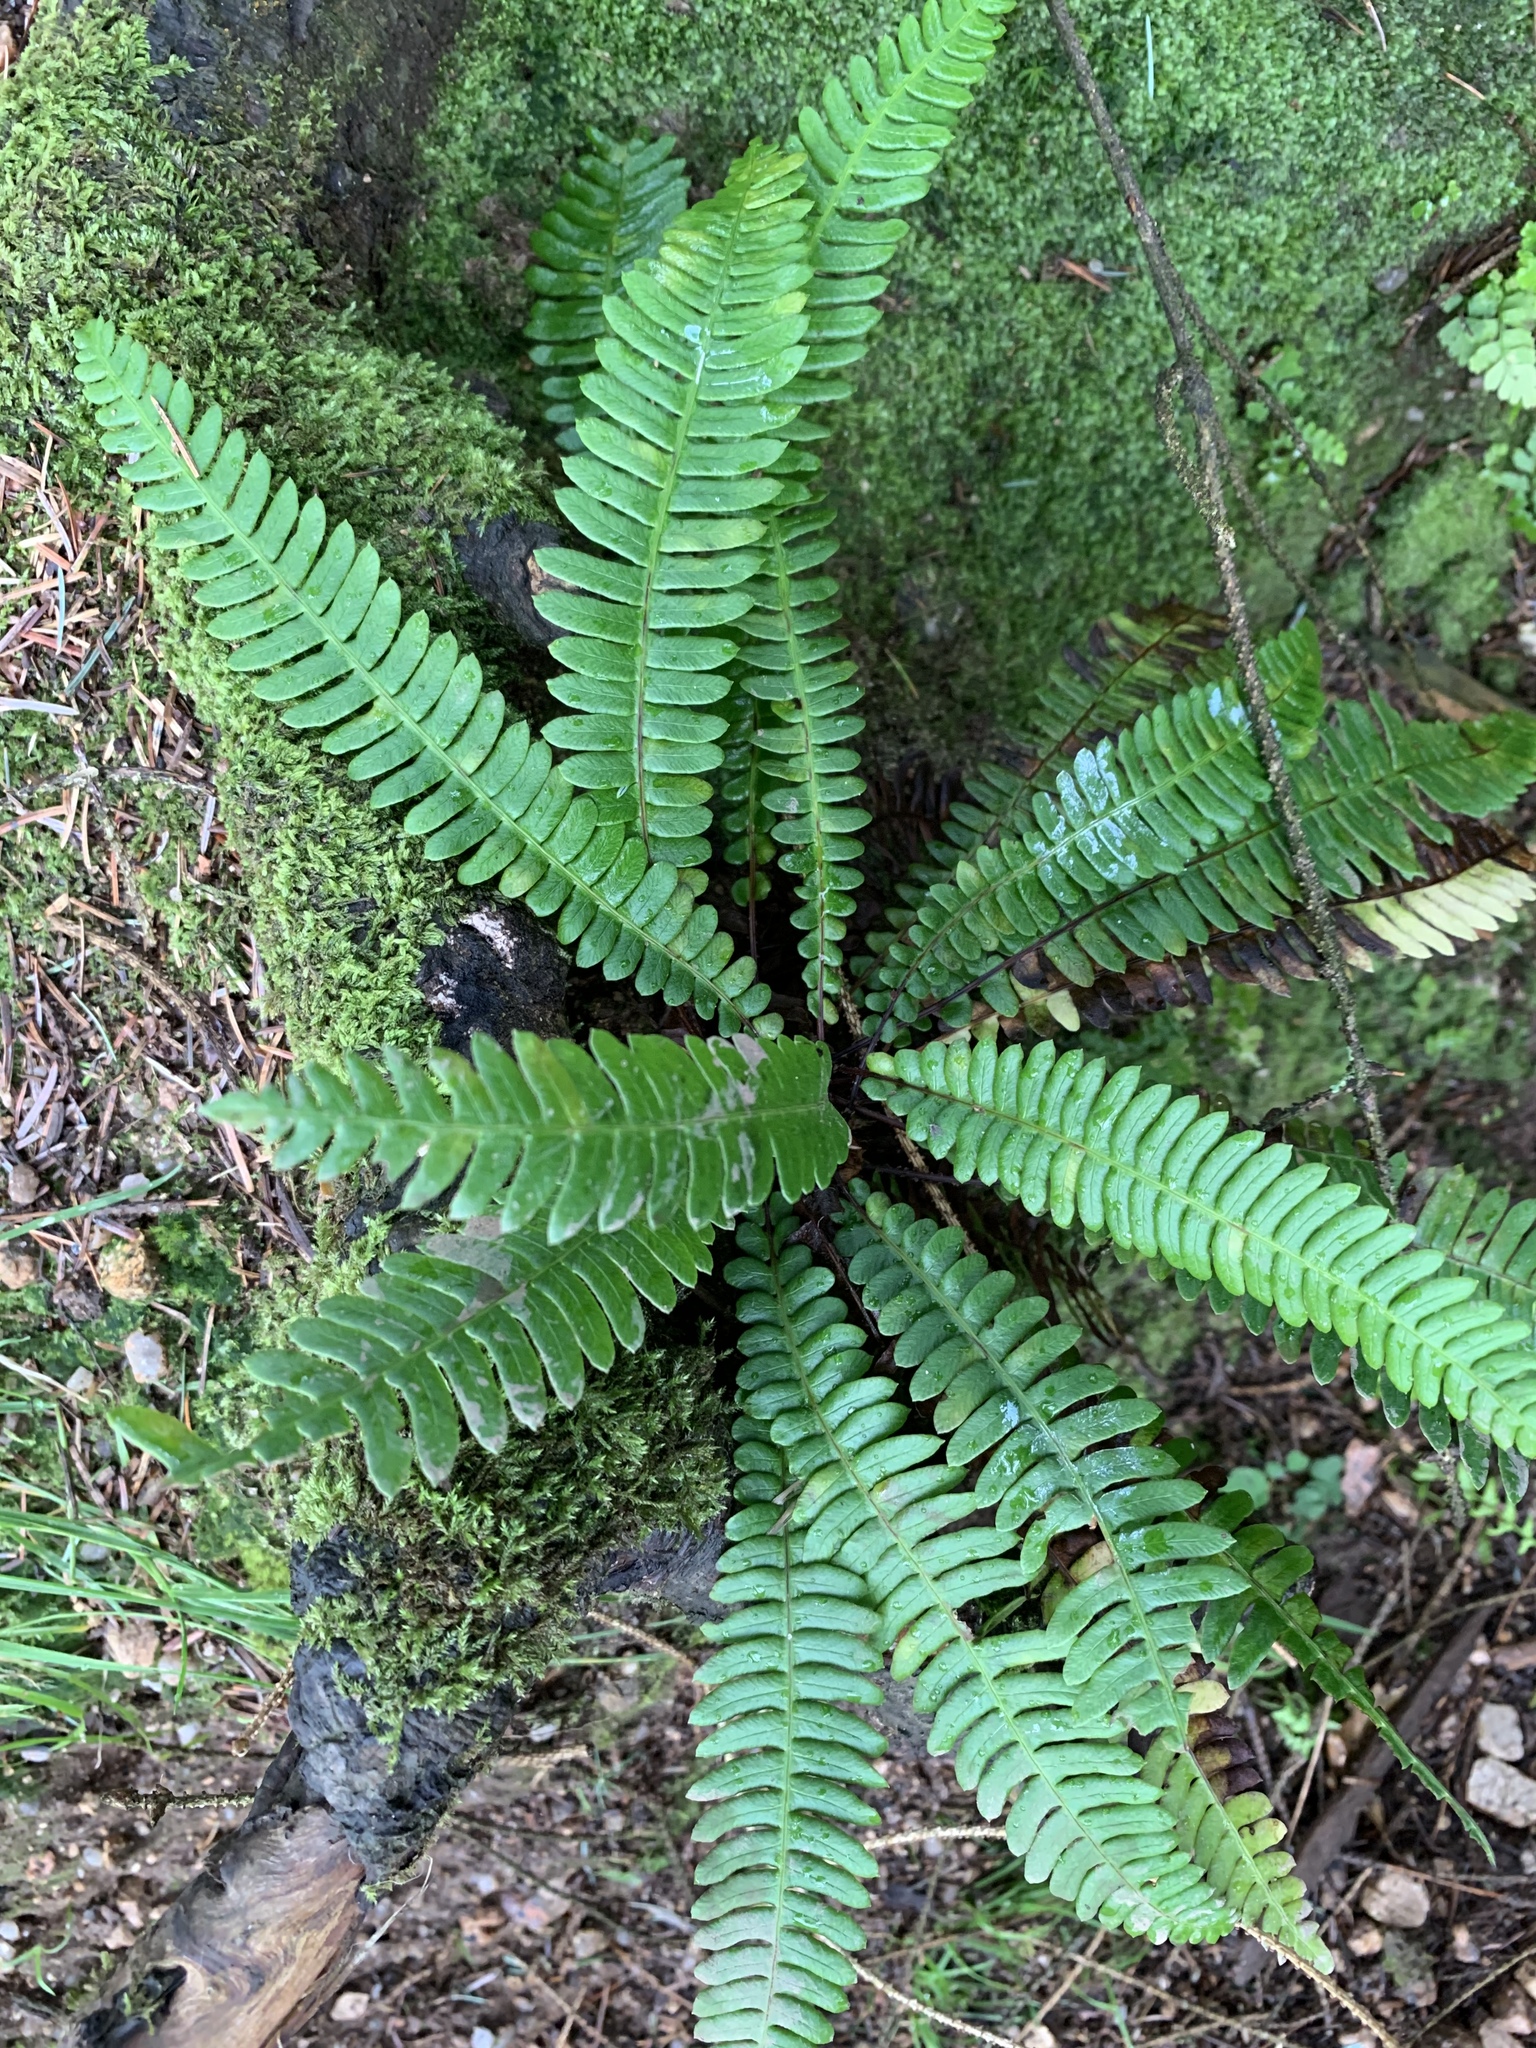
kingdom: Plantae
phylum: Tracheophyta
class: Polypodiopsida
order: Polypodiales
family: Blechnaceae
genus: Struthiopteris
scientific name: Struthiopteris spicant
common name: Deer fern
